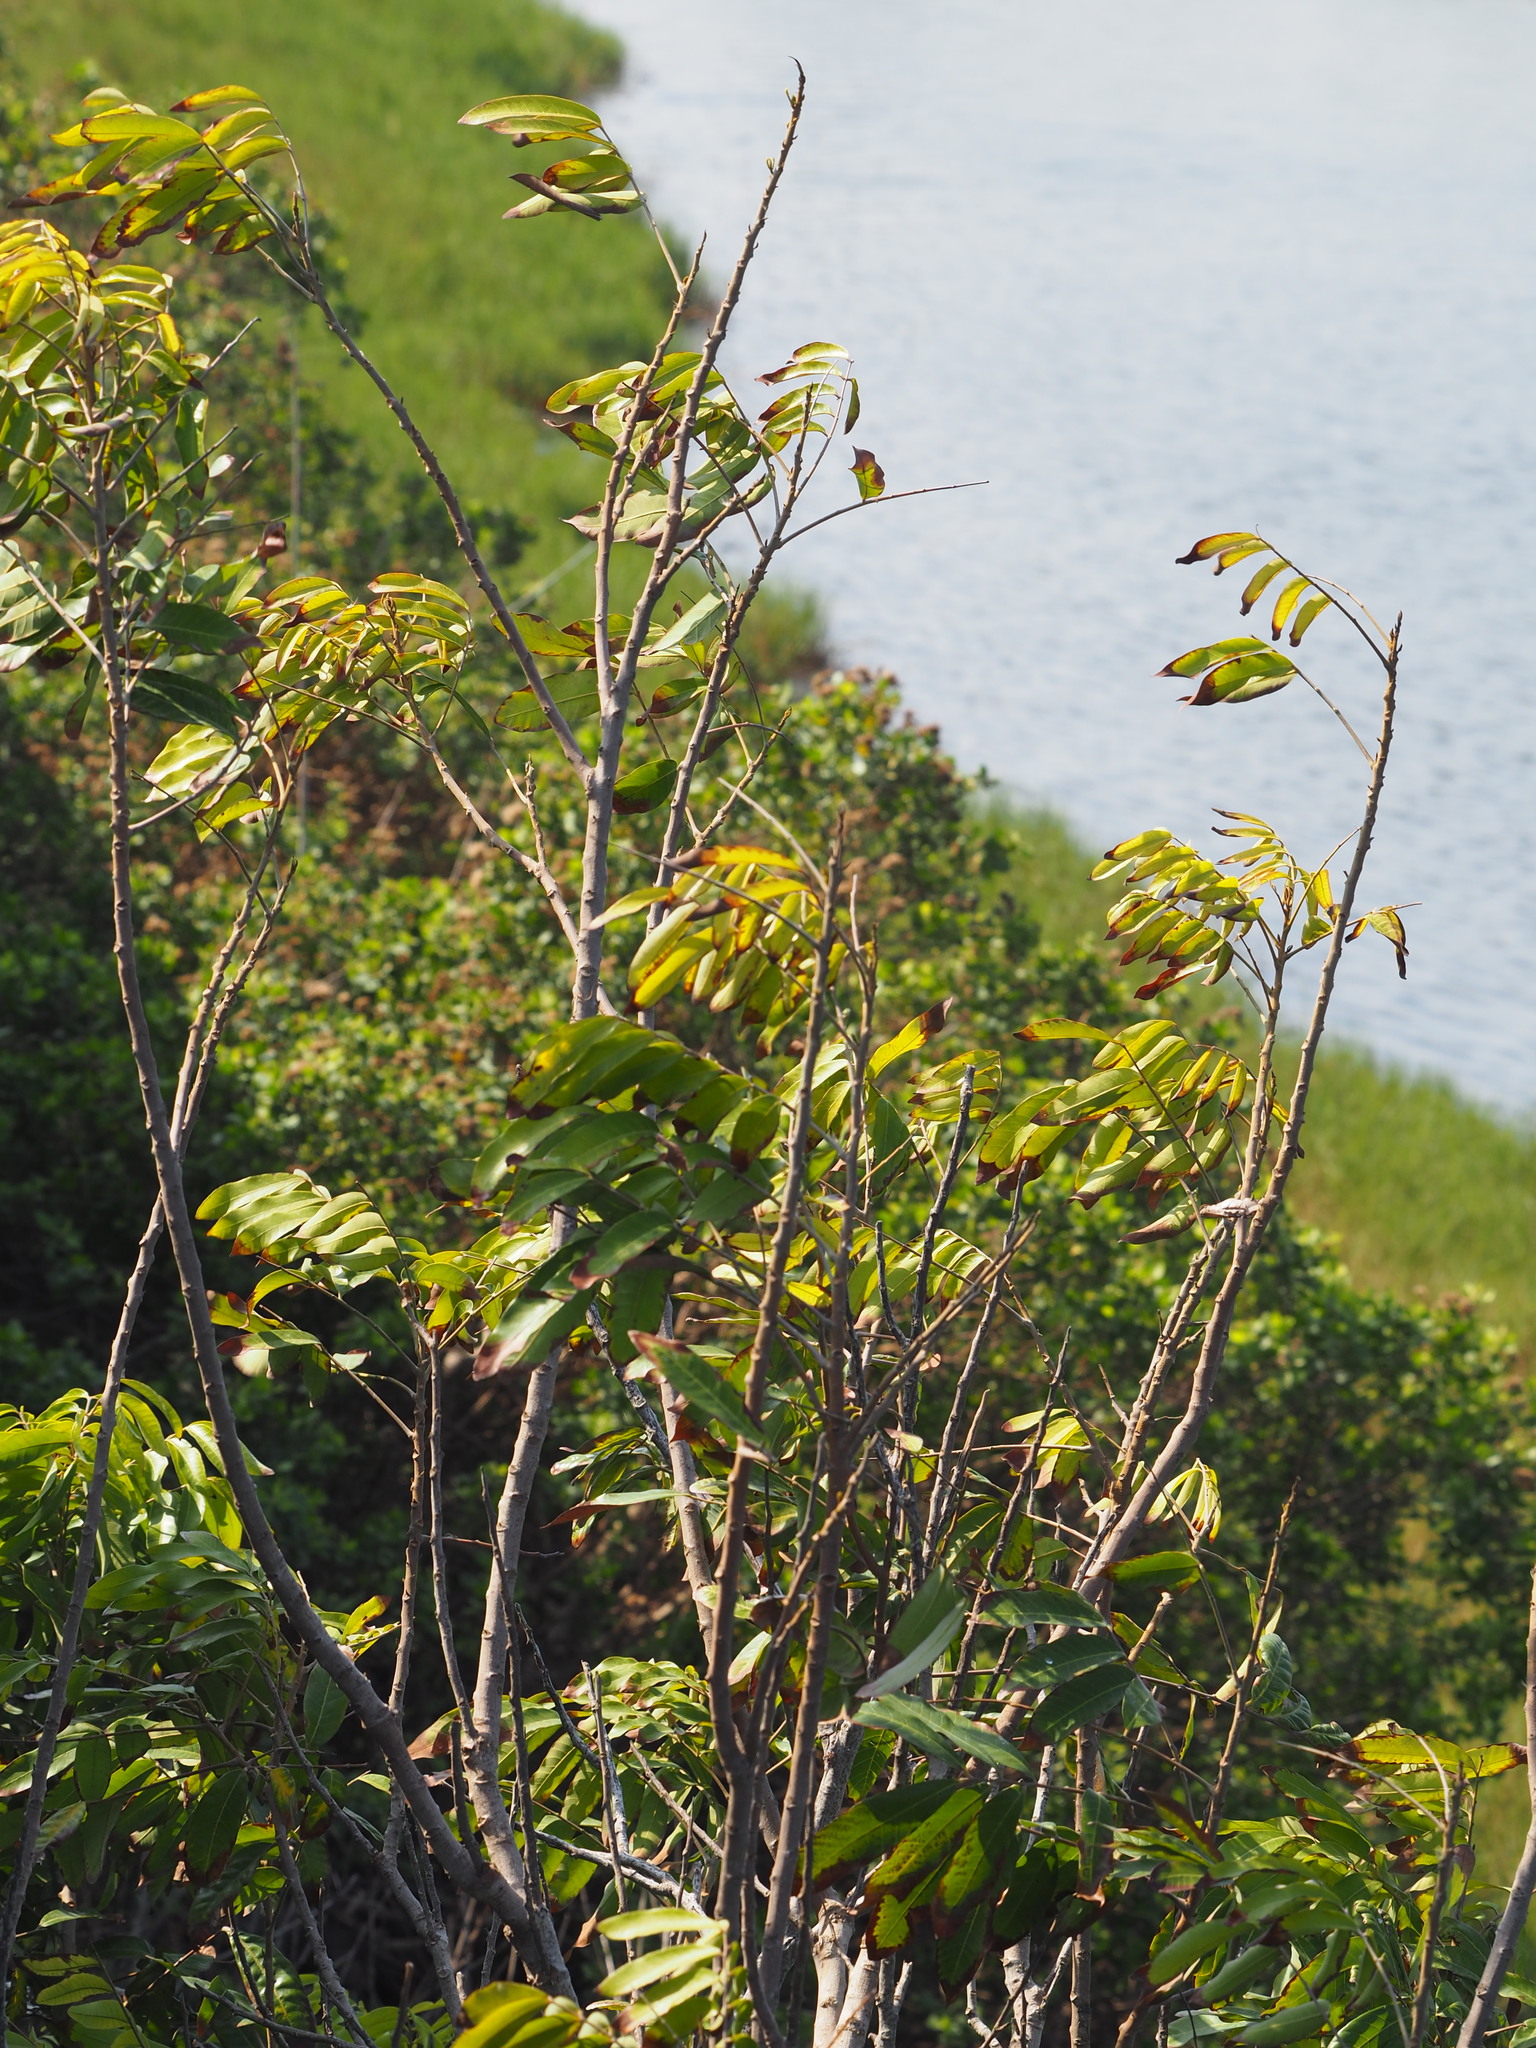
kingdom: Plantae
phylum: Tracheophyta
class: Magnoliopsida
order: Sapindales
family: Sapindaceae
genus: Dimocarpus
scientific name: Dimocarpus longan
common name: Longan
